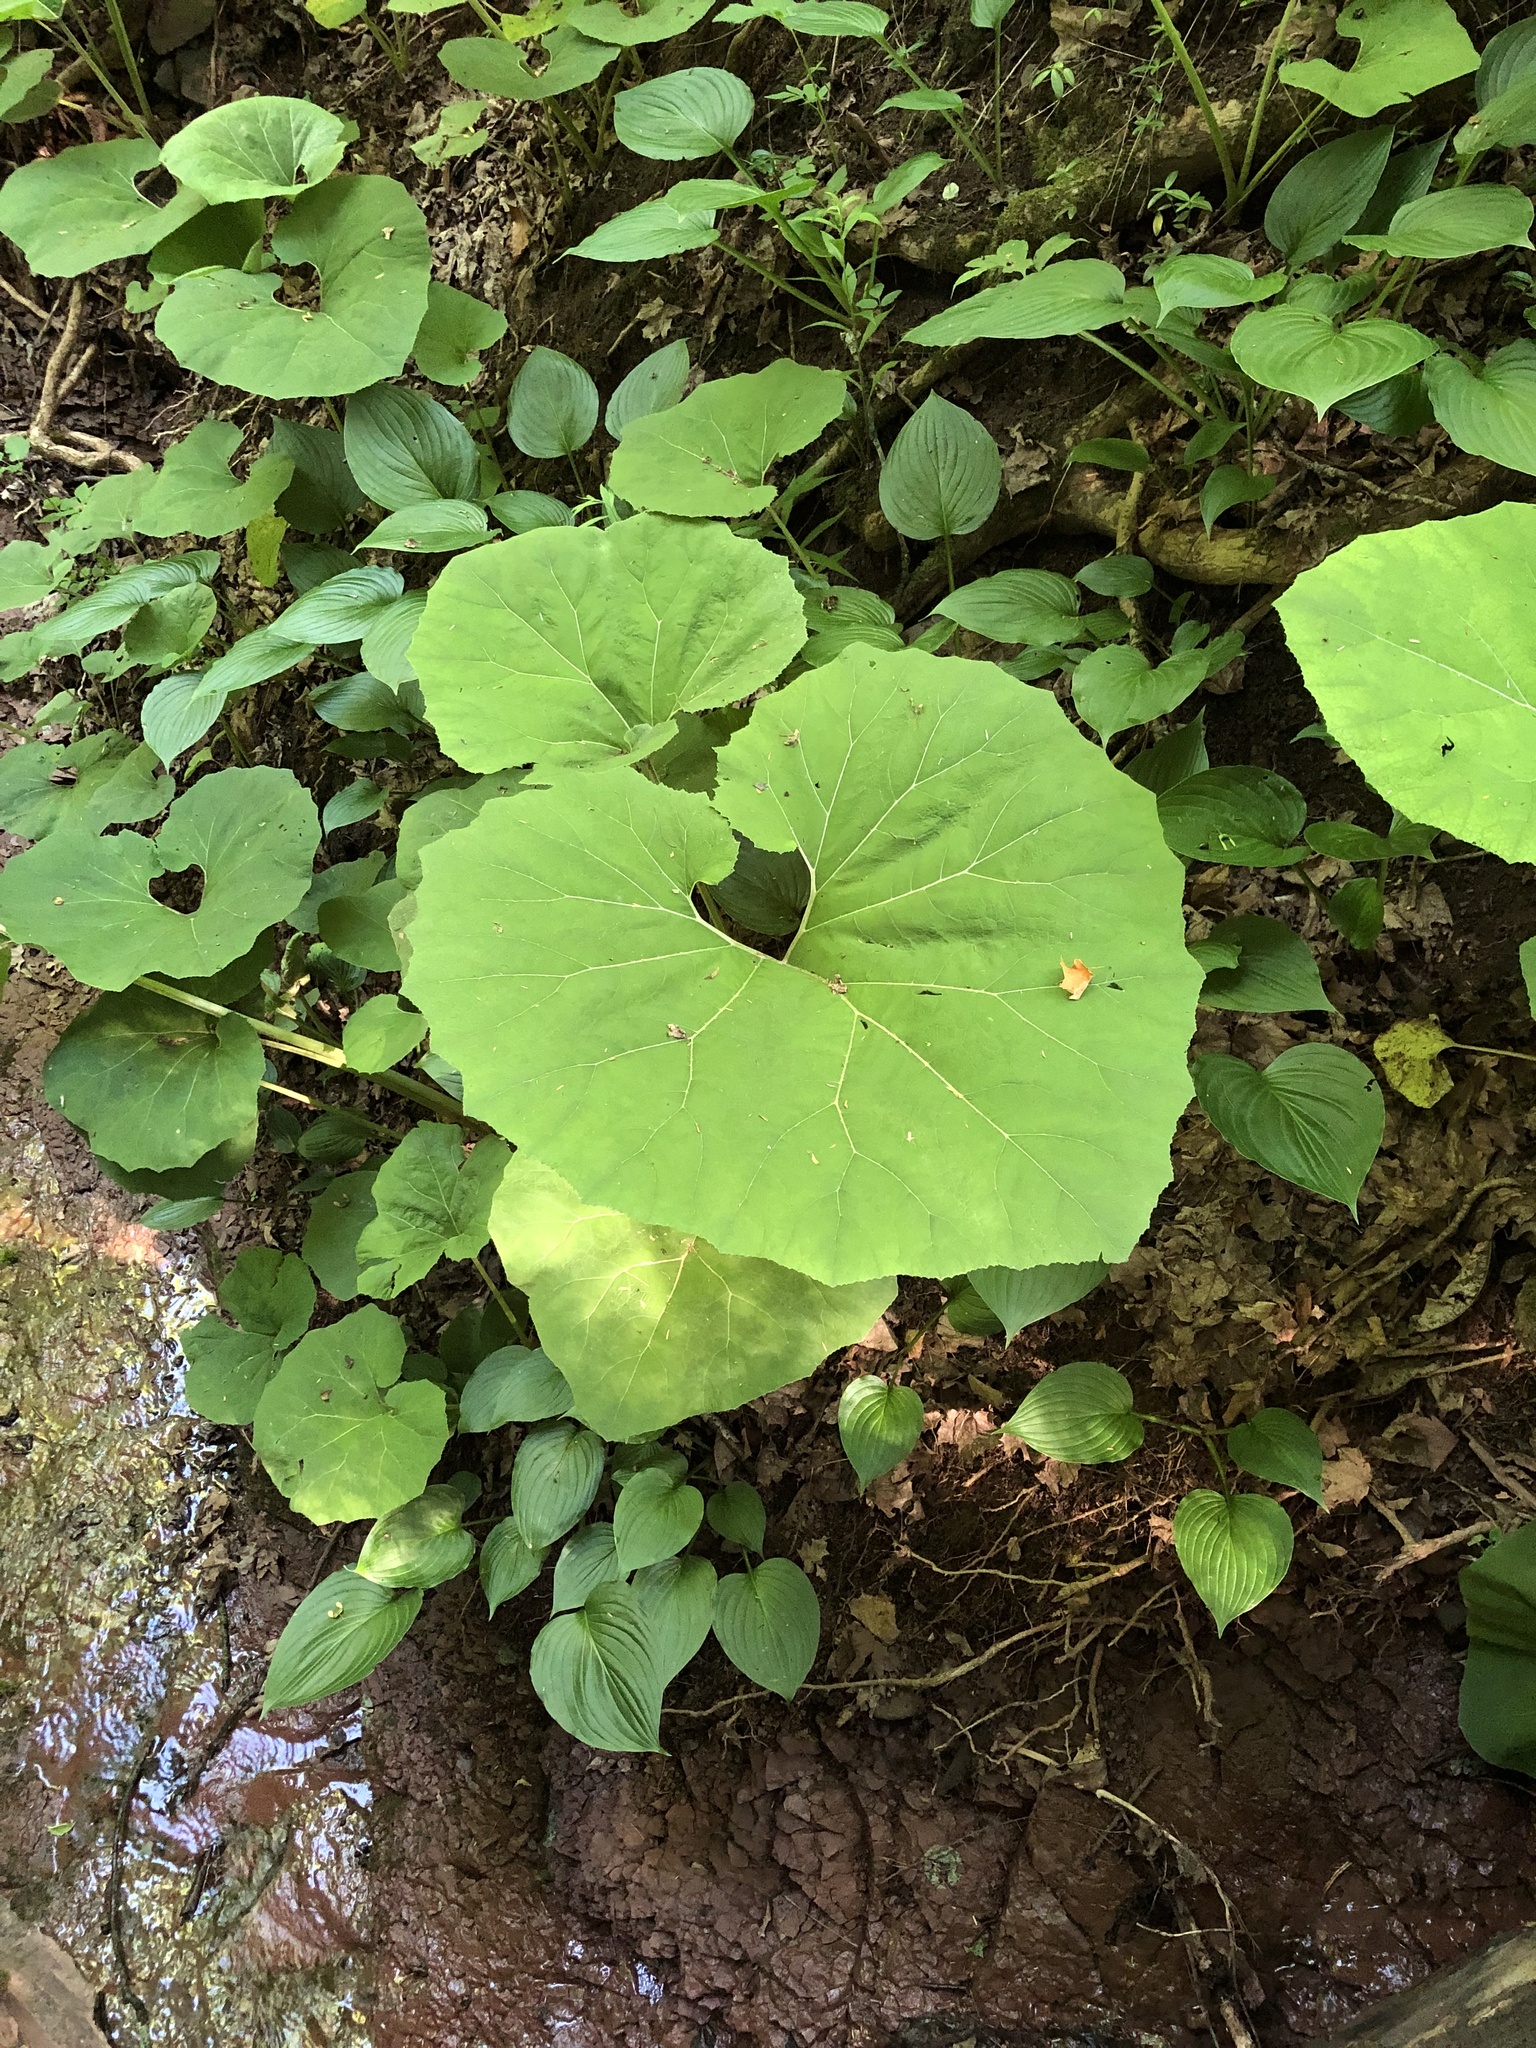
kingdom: Plantae
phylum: Tracheophyta
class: Magnoliopsida
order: Asterales
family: Asteraceae
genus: Petasites
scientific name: Petasites hybridus
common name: Butterbur
